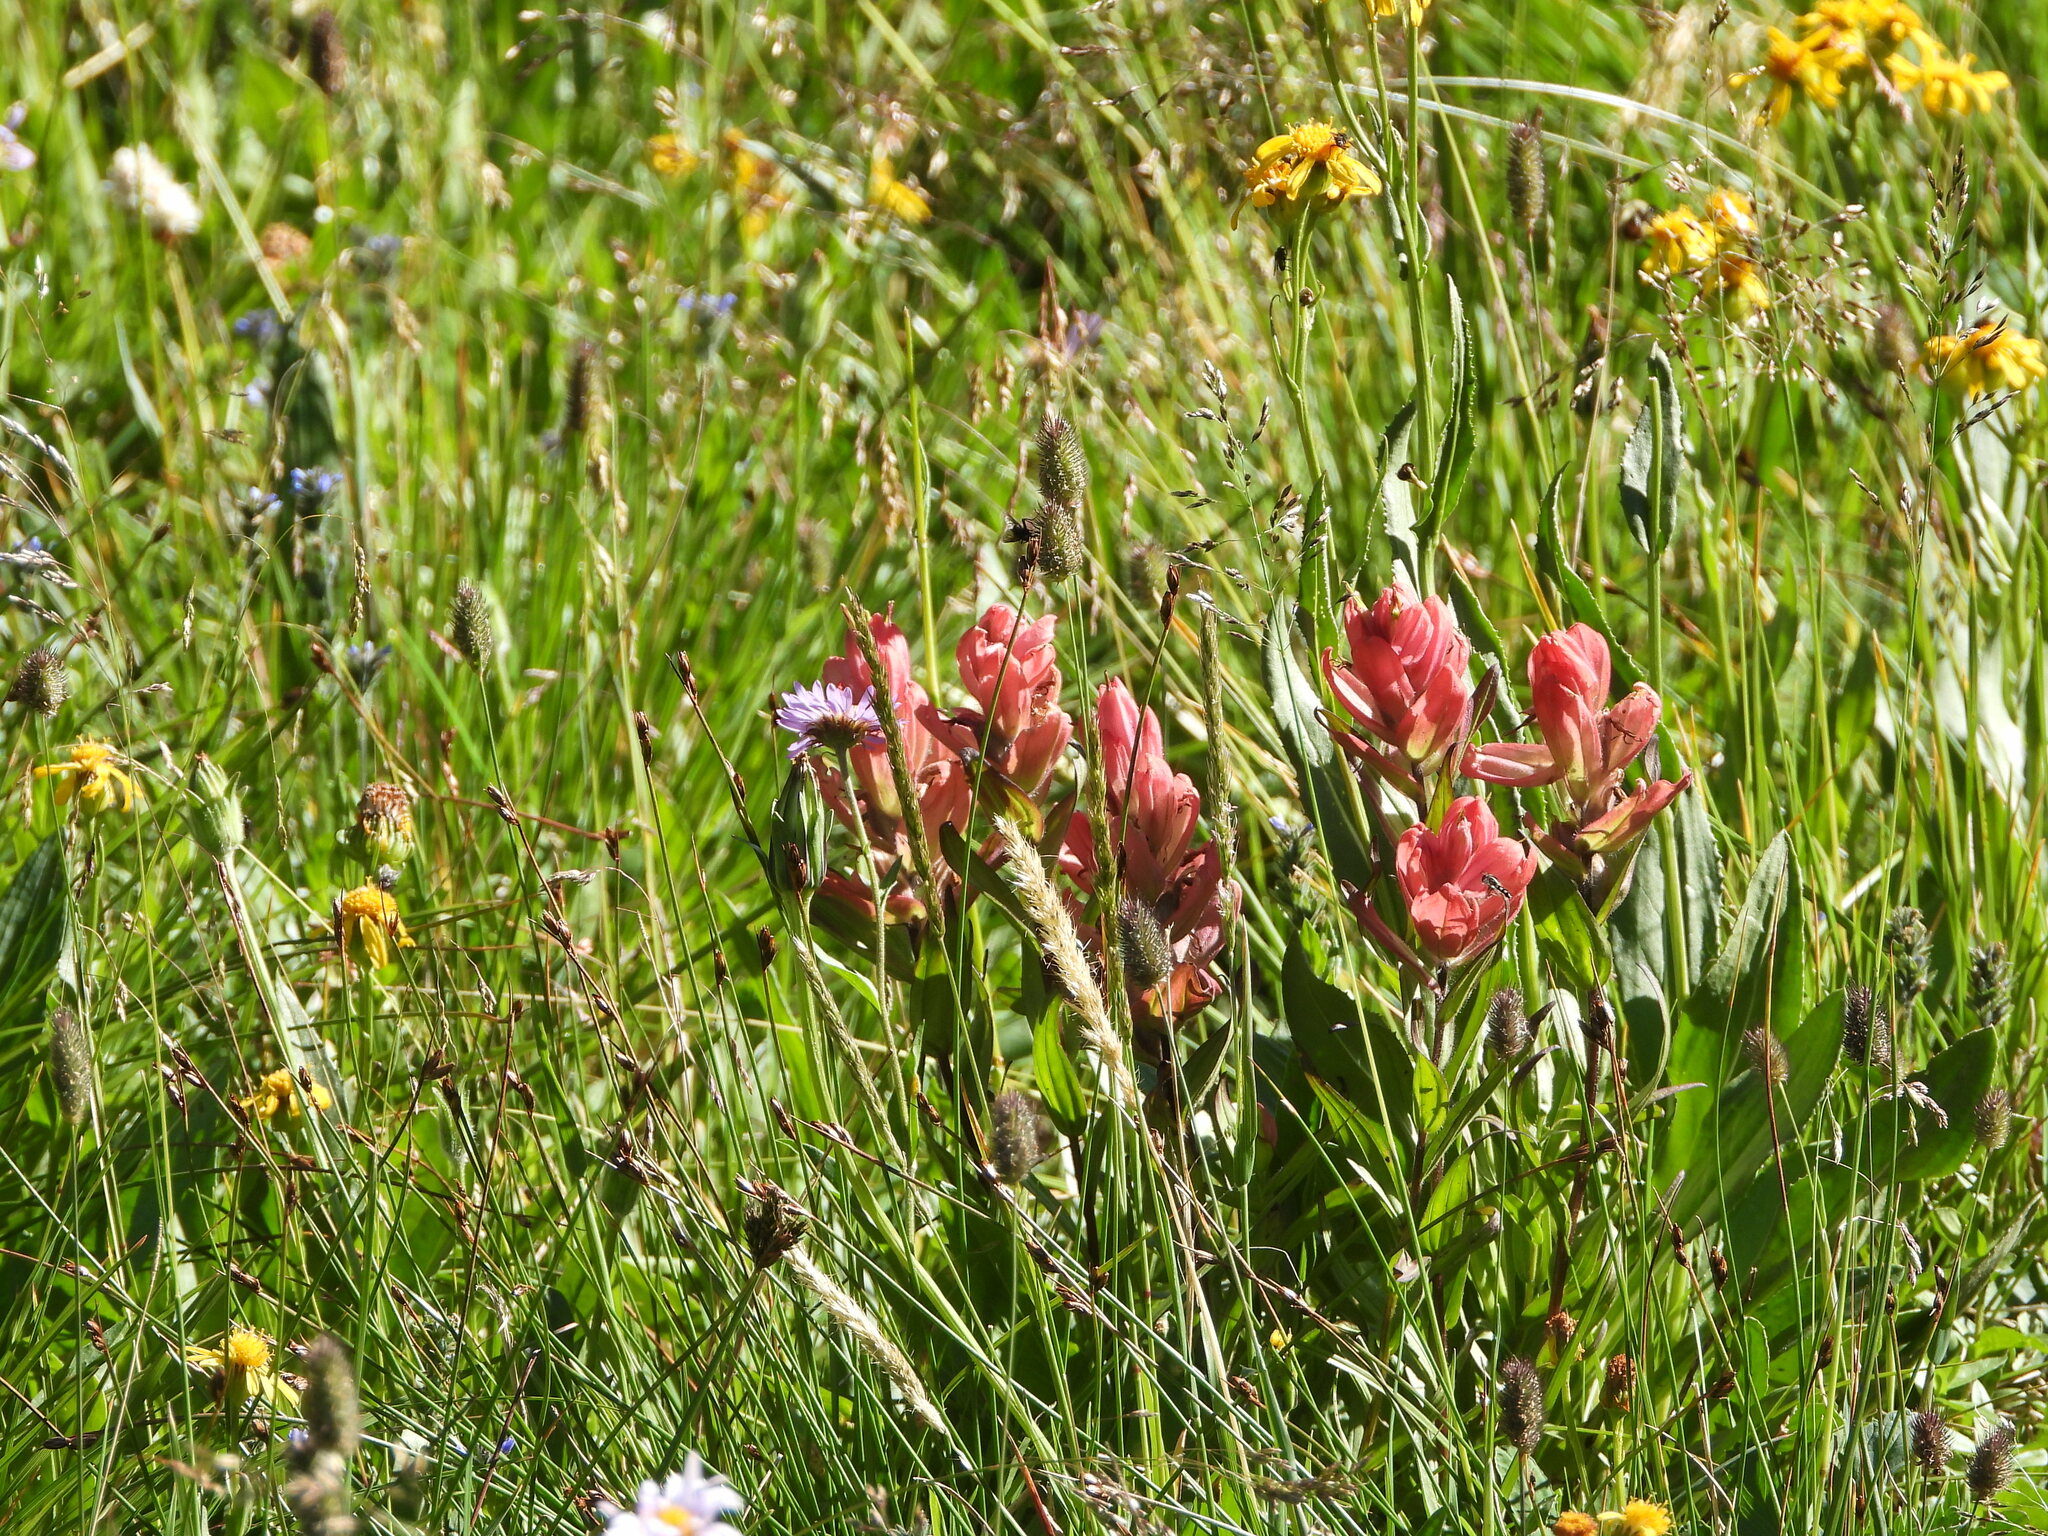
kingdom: Plantae
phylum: Tracheophyta
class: Magnoliopsida
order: Lamiales
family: Orobanchaceae
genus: Castilleja
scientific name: Castilleja rhexifolia
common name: Rocky mountain paintbrush
